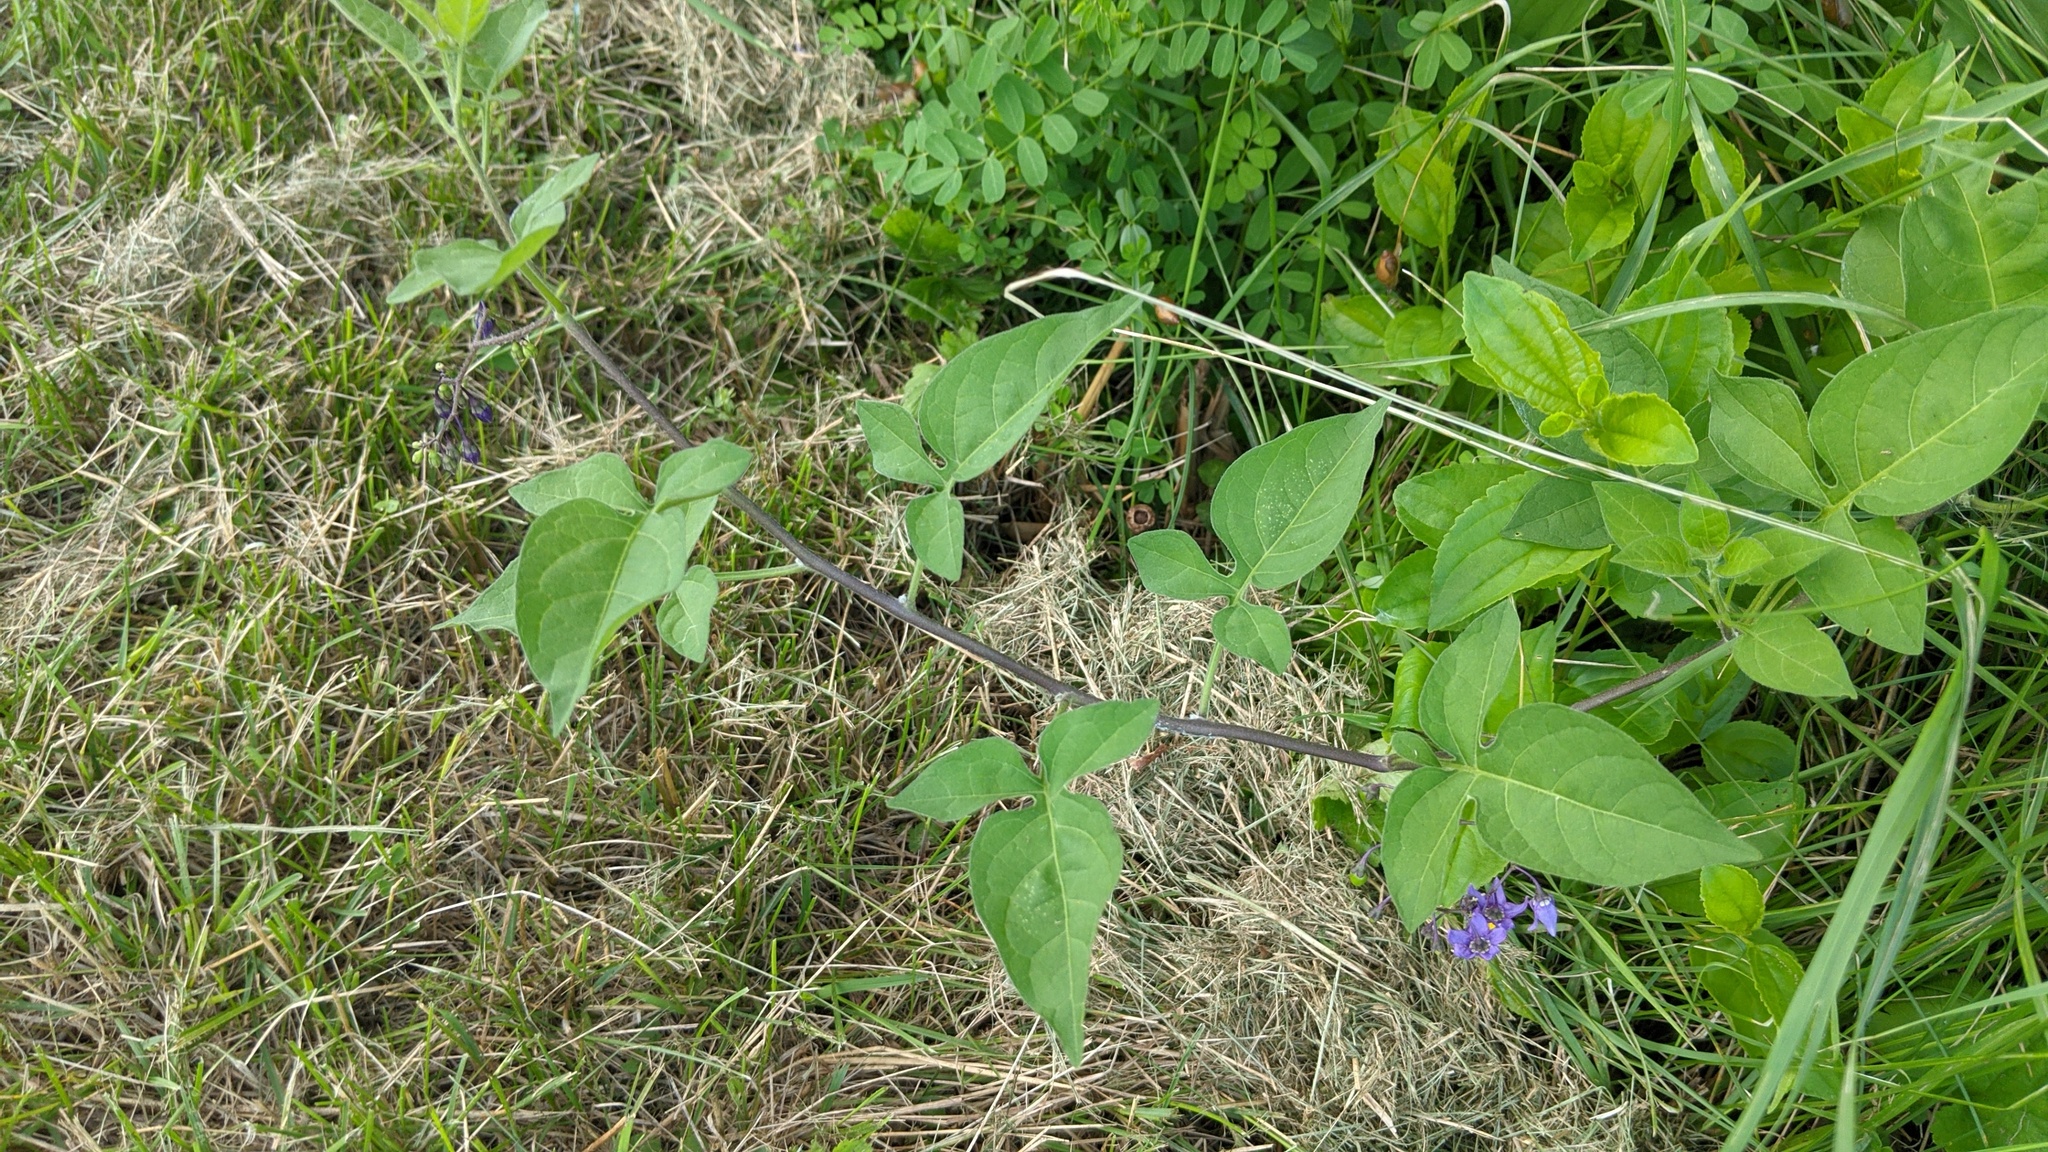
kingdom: Plantae
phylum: Tracheophyta
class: Magnoliopsida
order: Solanales
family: Solanaceae
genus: Solanum
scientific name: Solanum dulcamara
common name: Climbing nightshade
